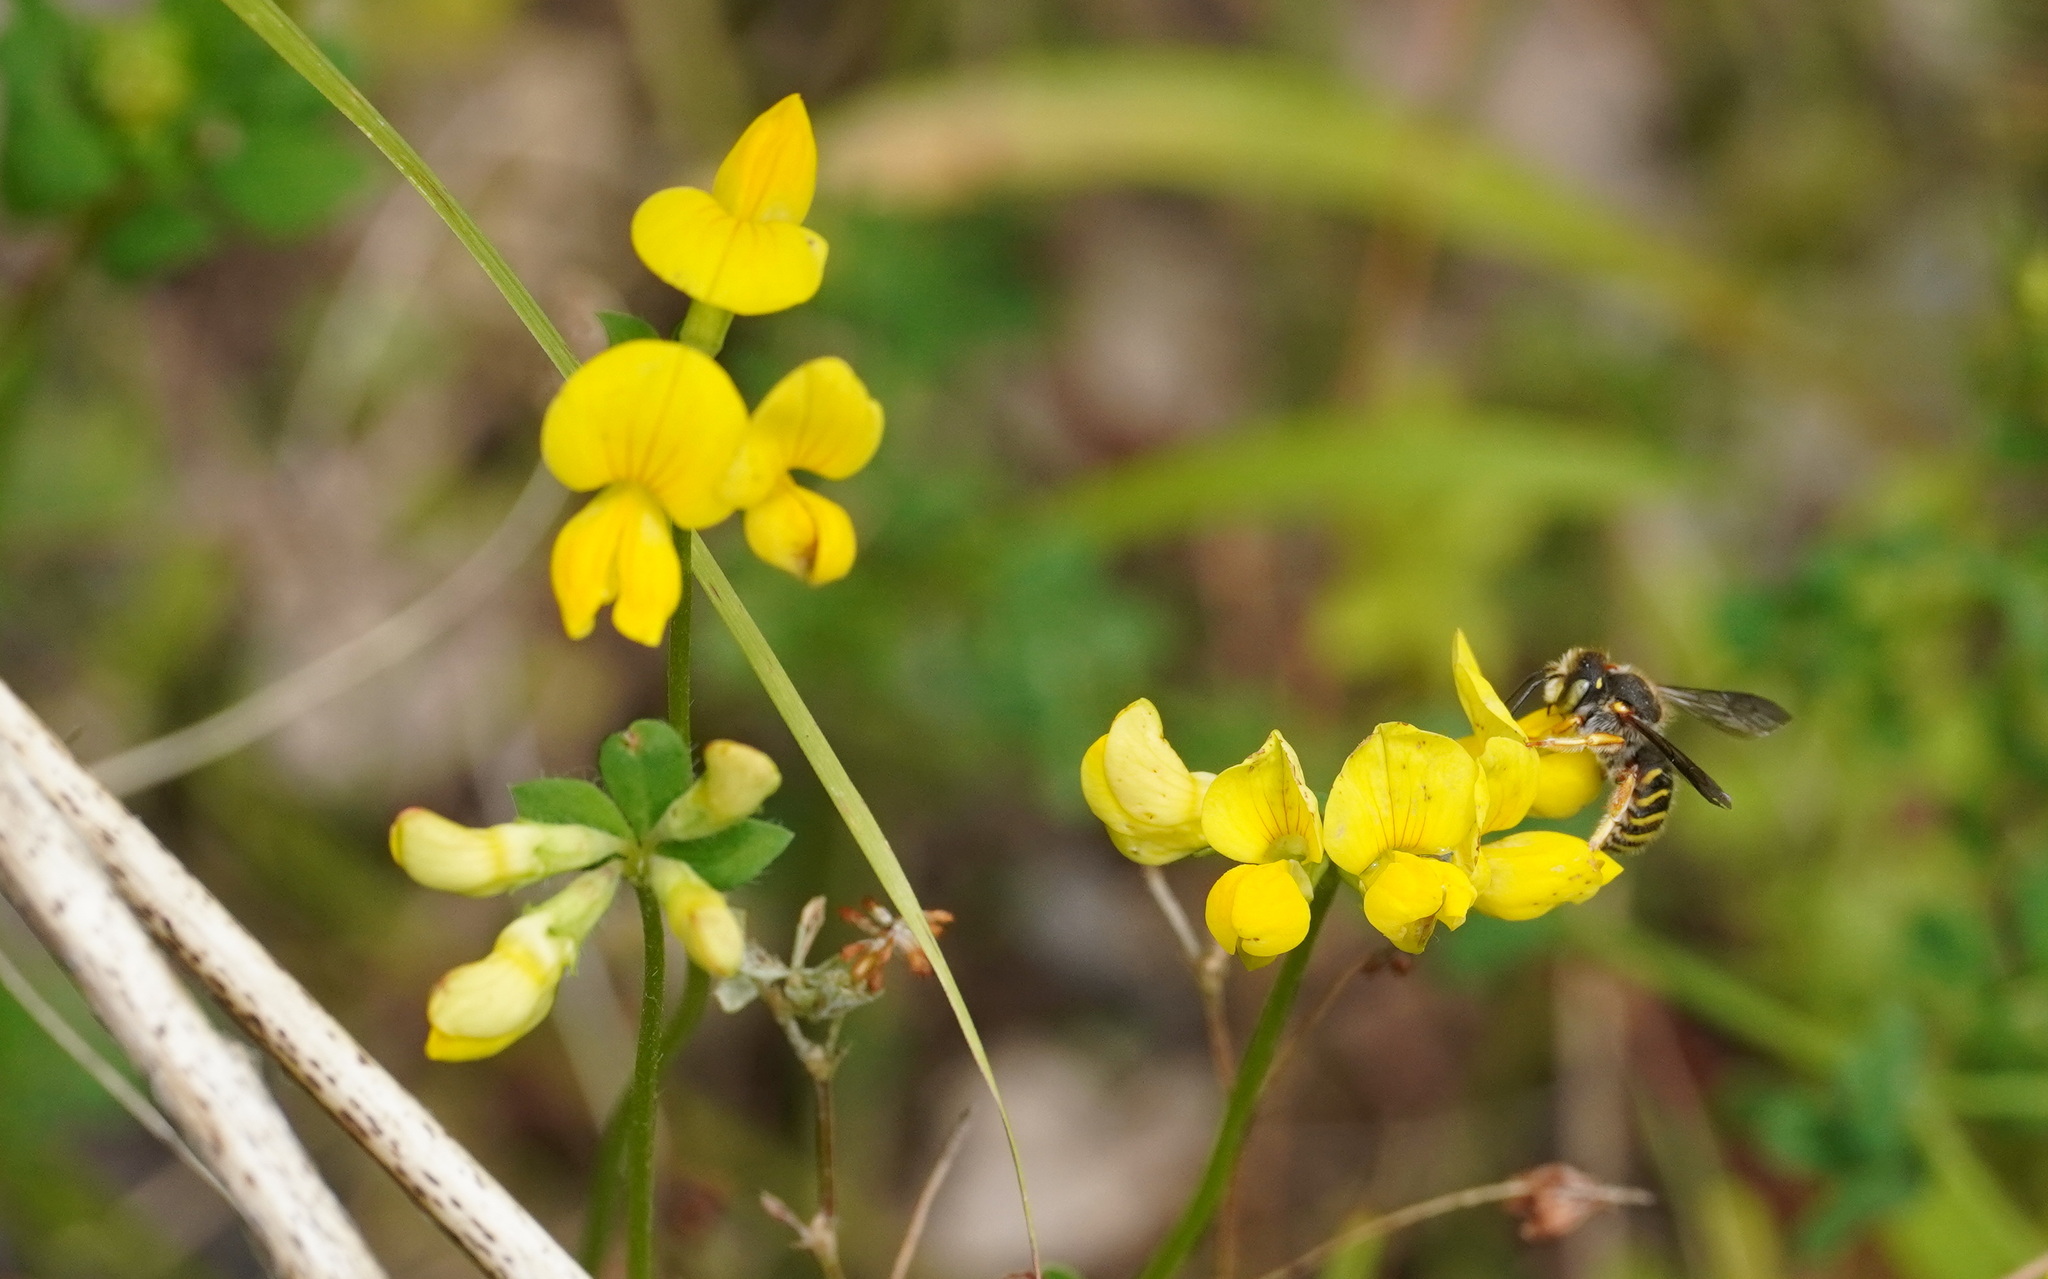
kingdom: Animalia
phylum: Arthropoda
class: Insecta
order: Hymenoptera
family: Megachilidae
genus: Anthidium
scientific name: Anthidium oblongatum
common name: Oblong wool carder bee
